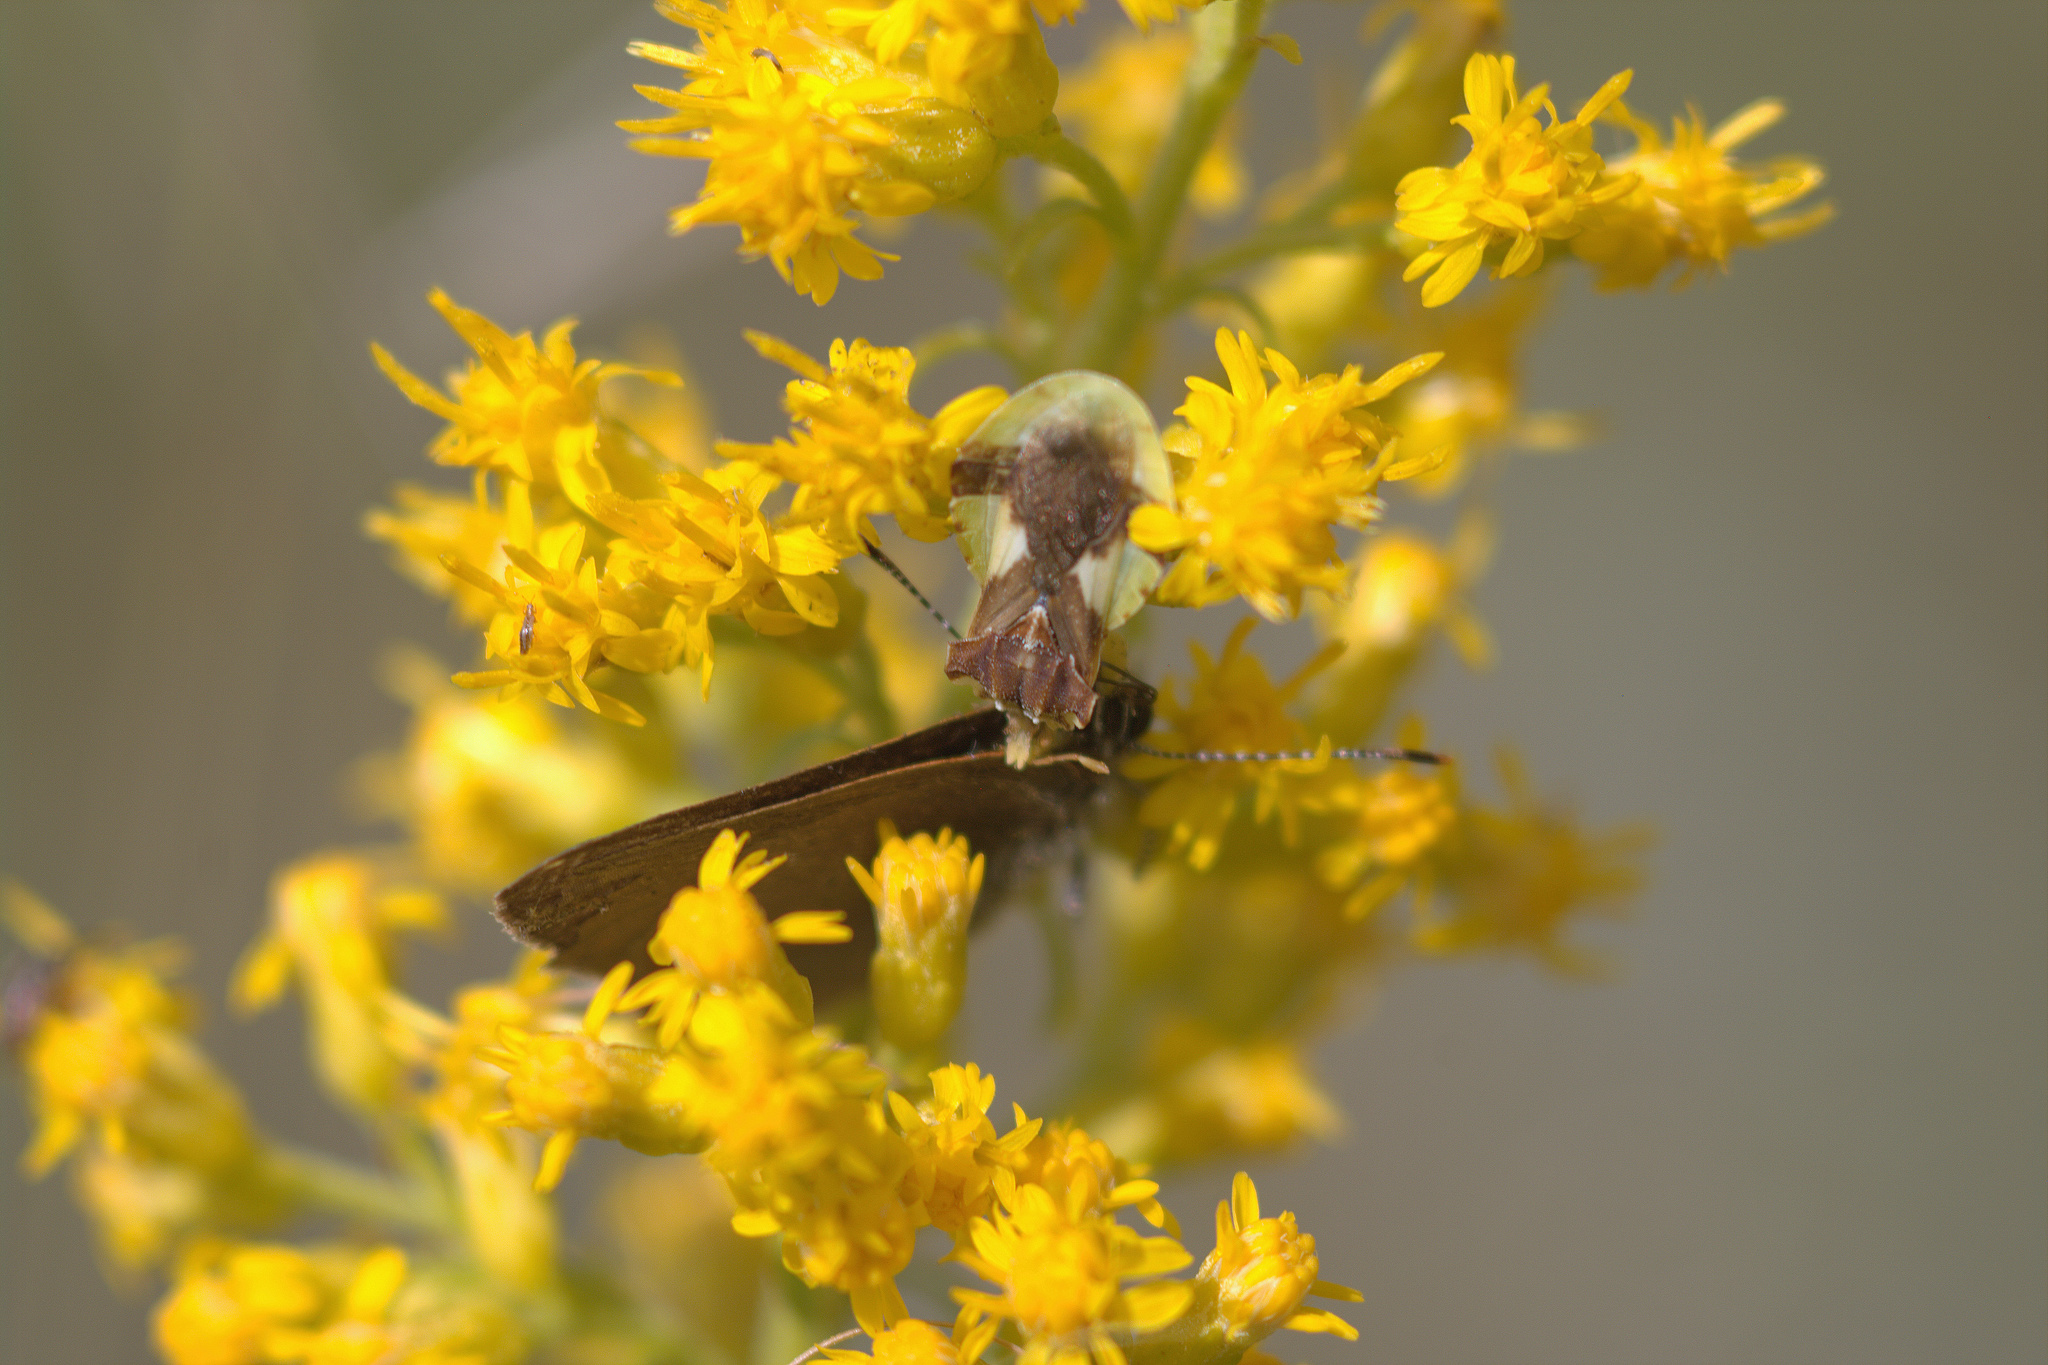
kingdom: Animalia
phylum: Arthropoda
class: Insecta
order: Hemiptera
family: Reduviidae
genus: Phymata
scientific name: Phymata americana
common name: Jagged ambush bug
